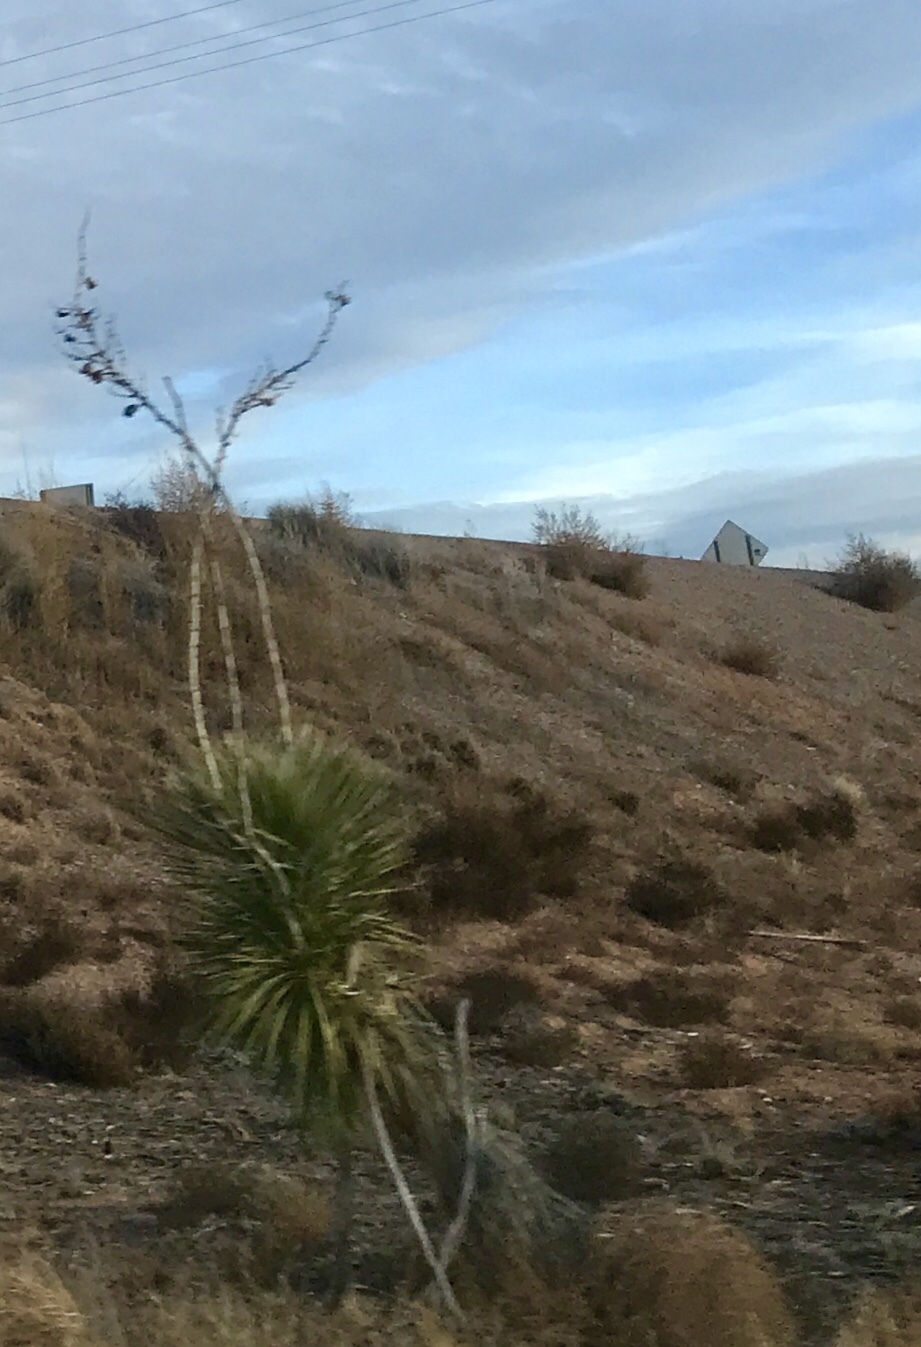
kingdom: Plantae
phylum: Tracheophyta
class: Liliopsida
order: Asparagales
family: Asparagaceae
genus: Yucca
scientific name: Yucca elata
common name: Palmella
